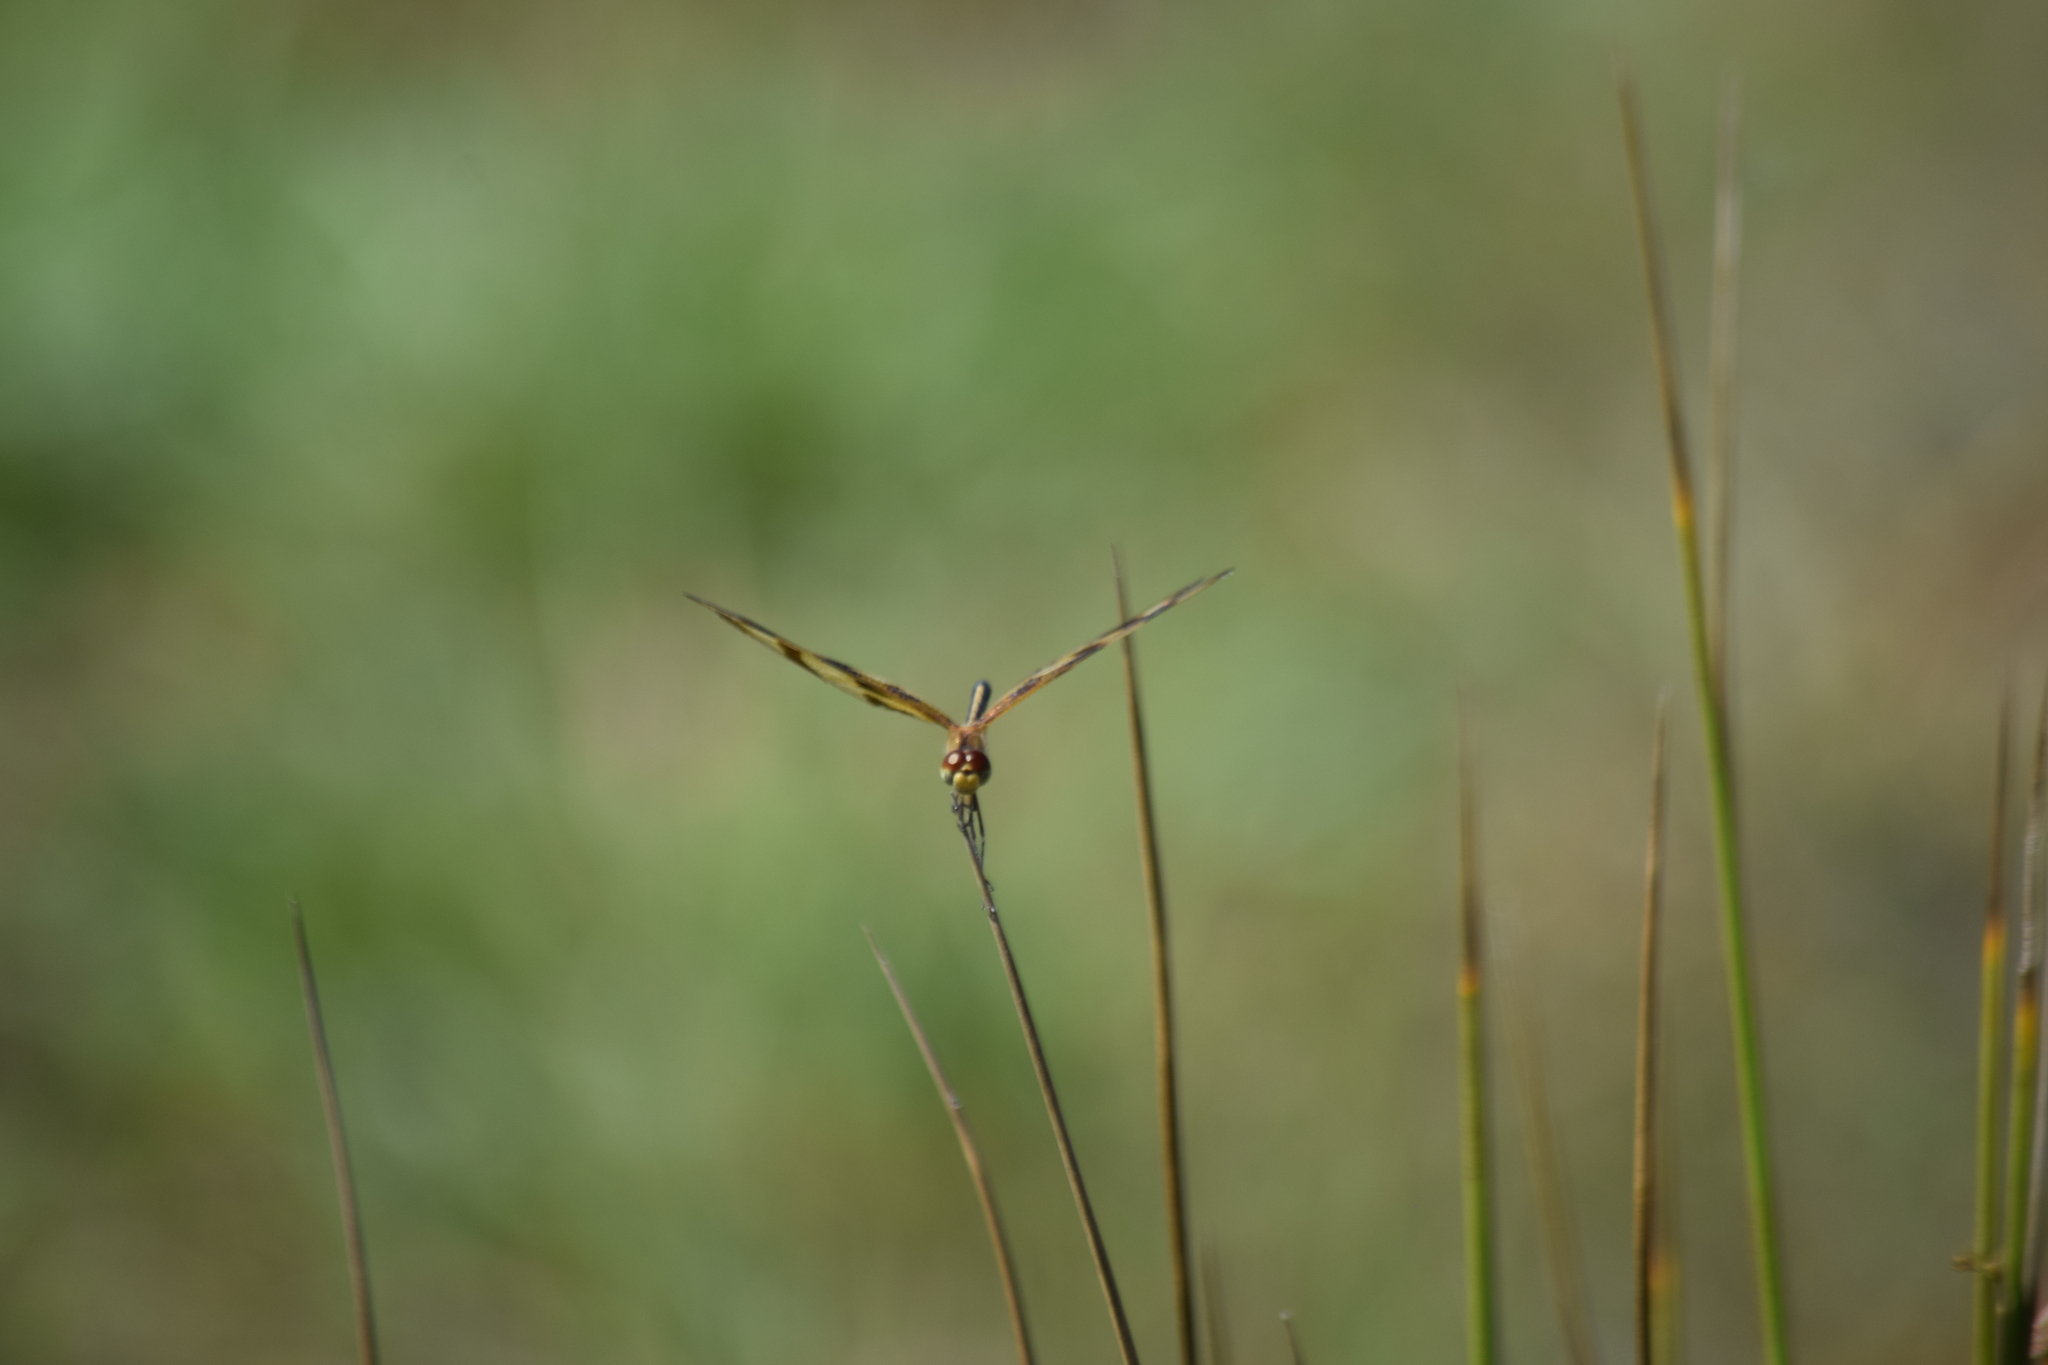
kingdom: Animalia
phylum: Arthropoda
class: Insecta
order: Odonata
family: Libellulidae
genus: Celithemis
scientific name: Celithemis eponina
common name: Halloween pennant
